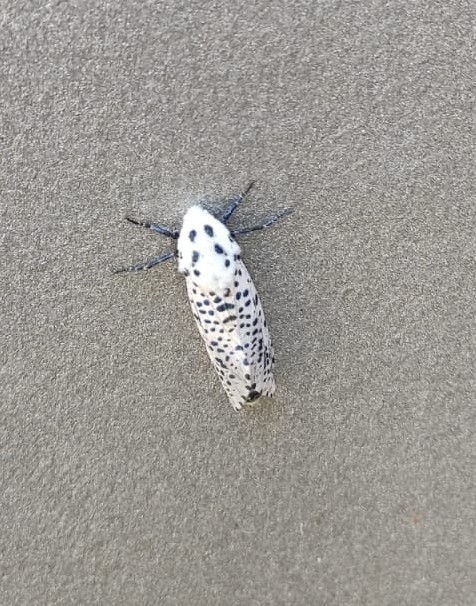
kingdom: Animalia
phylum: Arthropoda
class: Insecta
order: Lepidoptera
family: Cossidae
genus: Zeuzera
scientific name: Zeuzera pyrina
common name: Leopard moth
